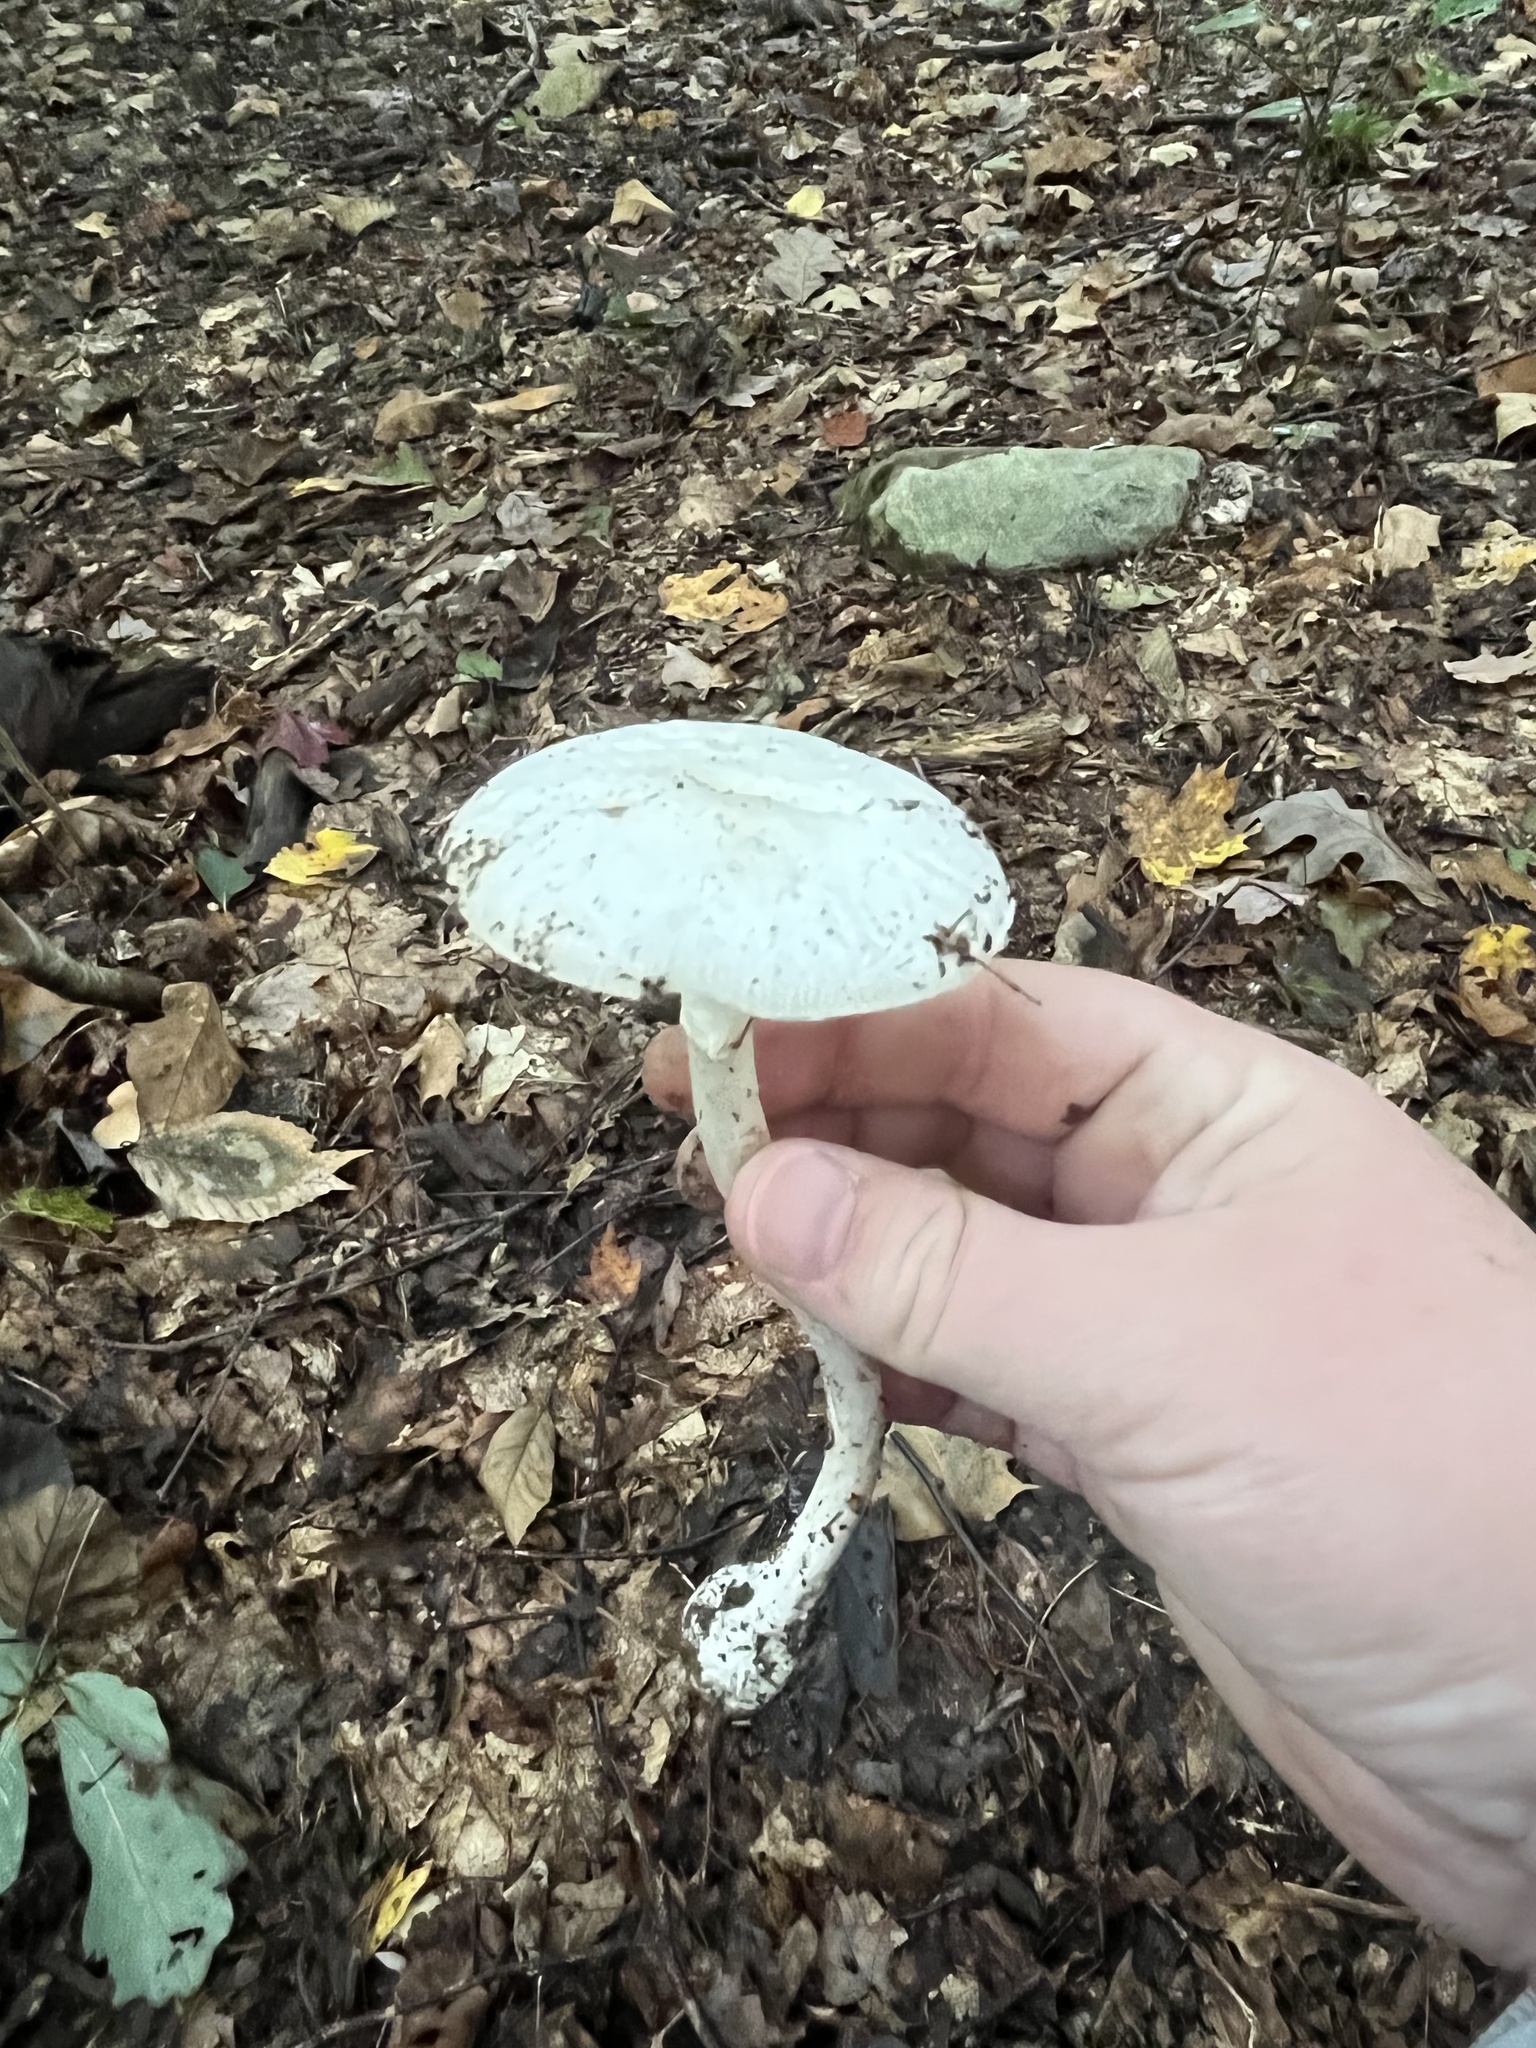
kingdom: Fungi
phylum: Basidiomycota
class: Agaricomycetes
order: Agaricales
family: Amanitaceae
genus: Amanita
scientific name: Amanita bisporigera
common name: Eastern north american destroying angel
